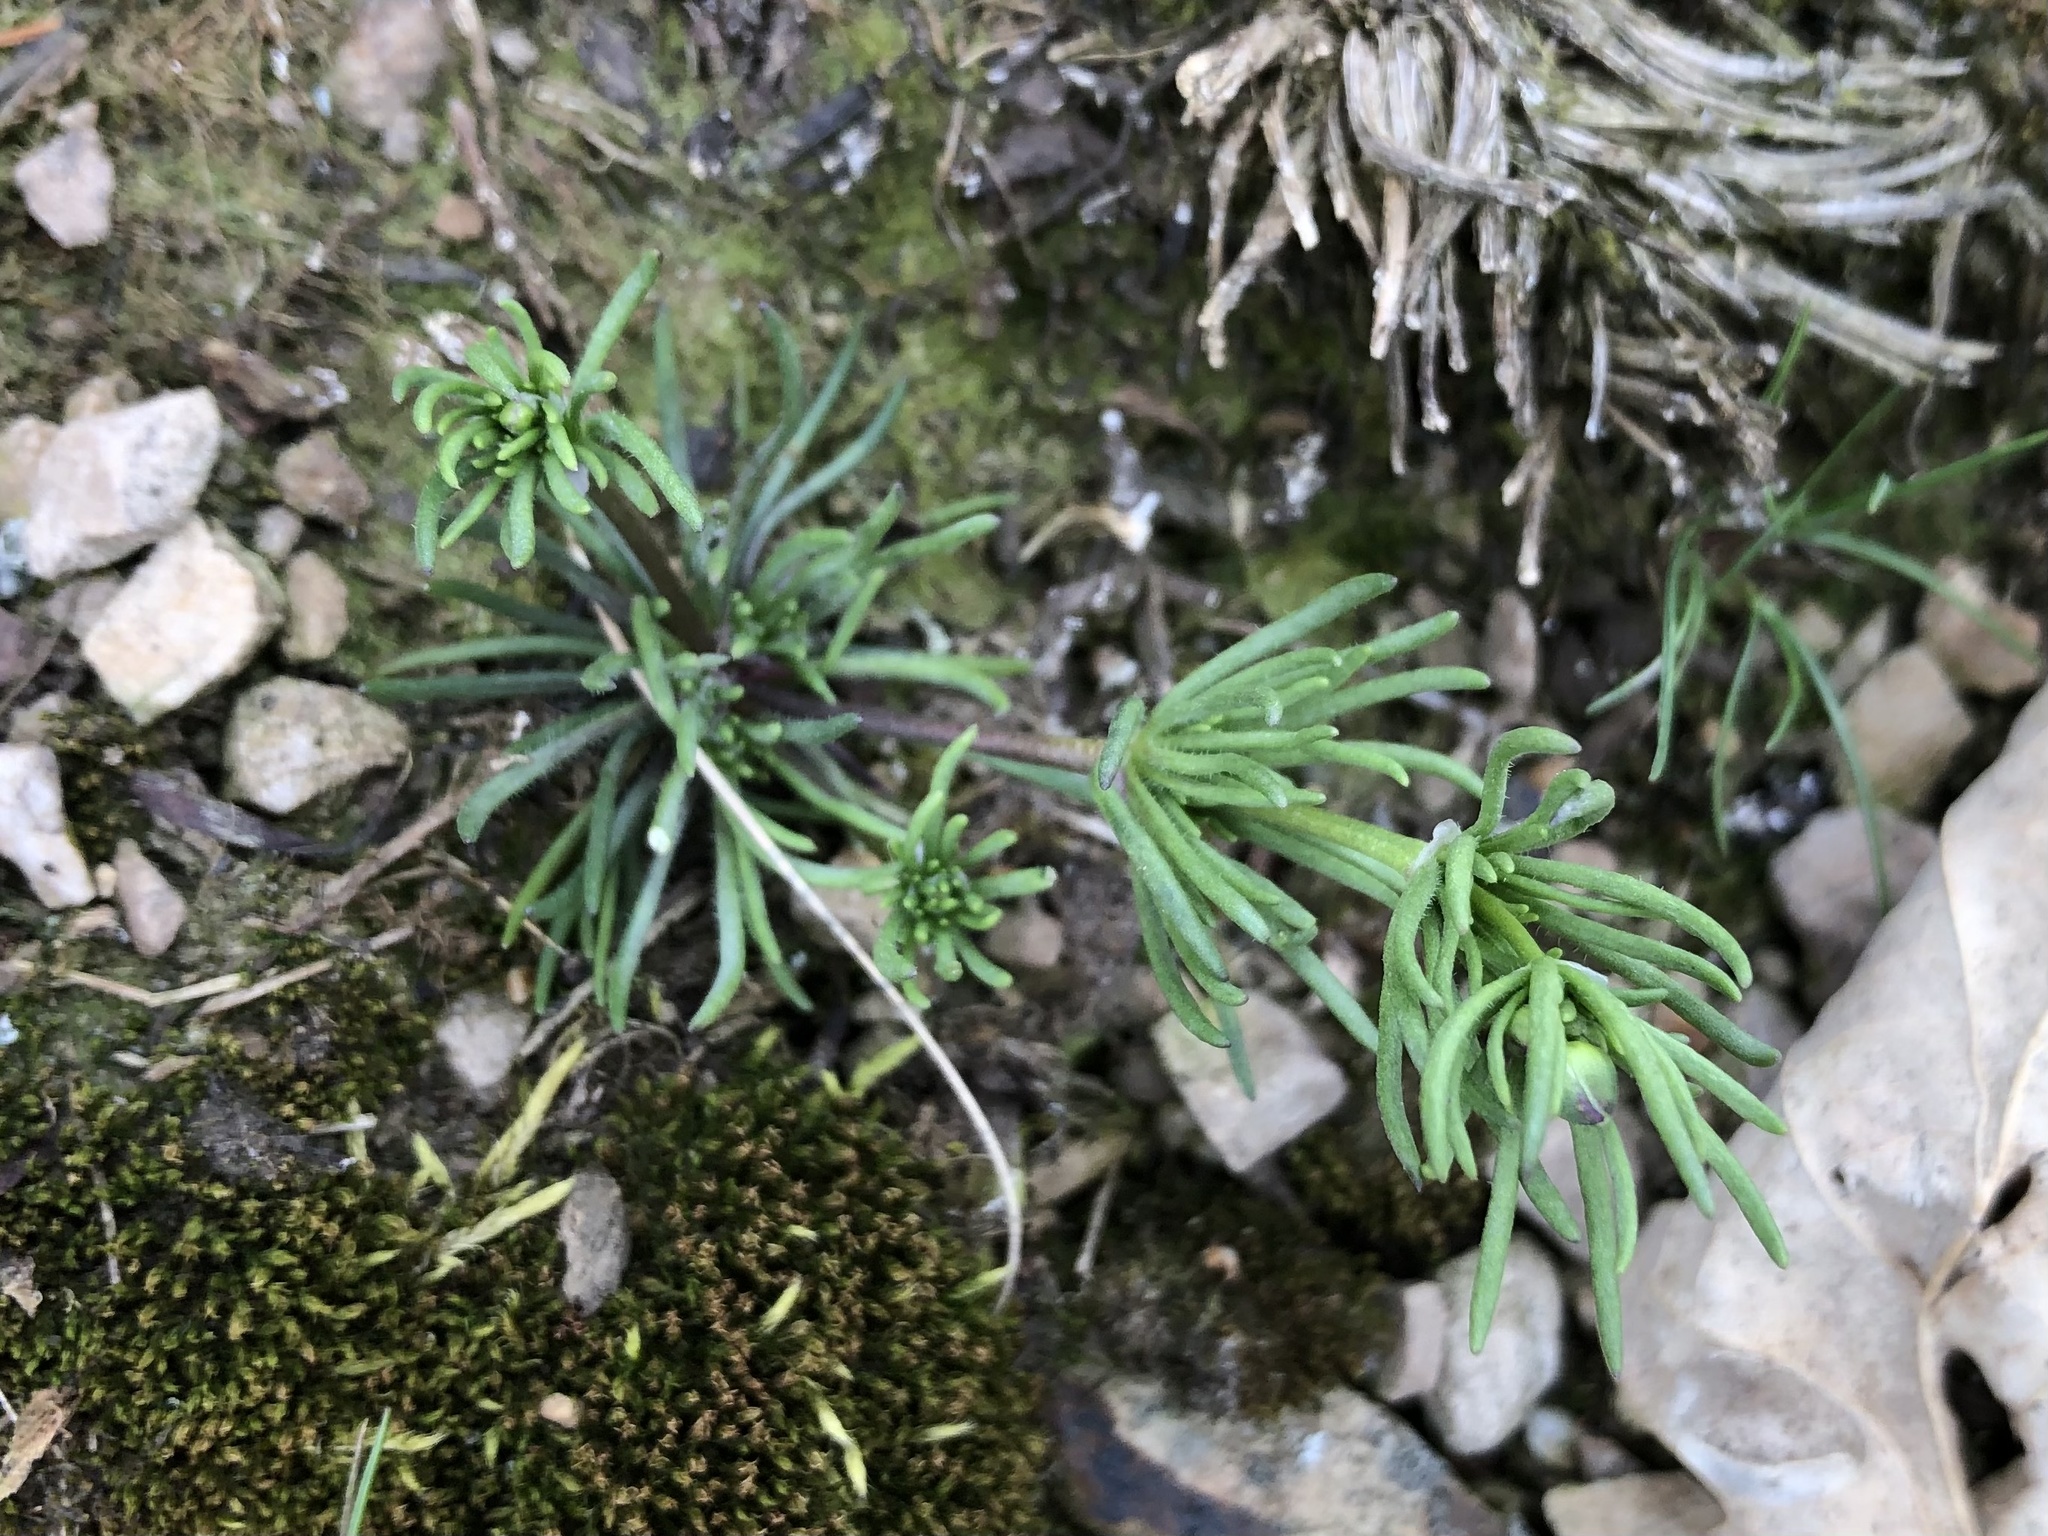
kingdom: Plantae
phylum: Tracheophyta
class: Magnoliopsida
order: Caryophyllales
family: Caryophyllaceae
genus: Spergula
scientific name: Spergula morisonii
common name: Pearlwort spurrey
